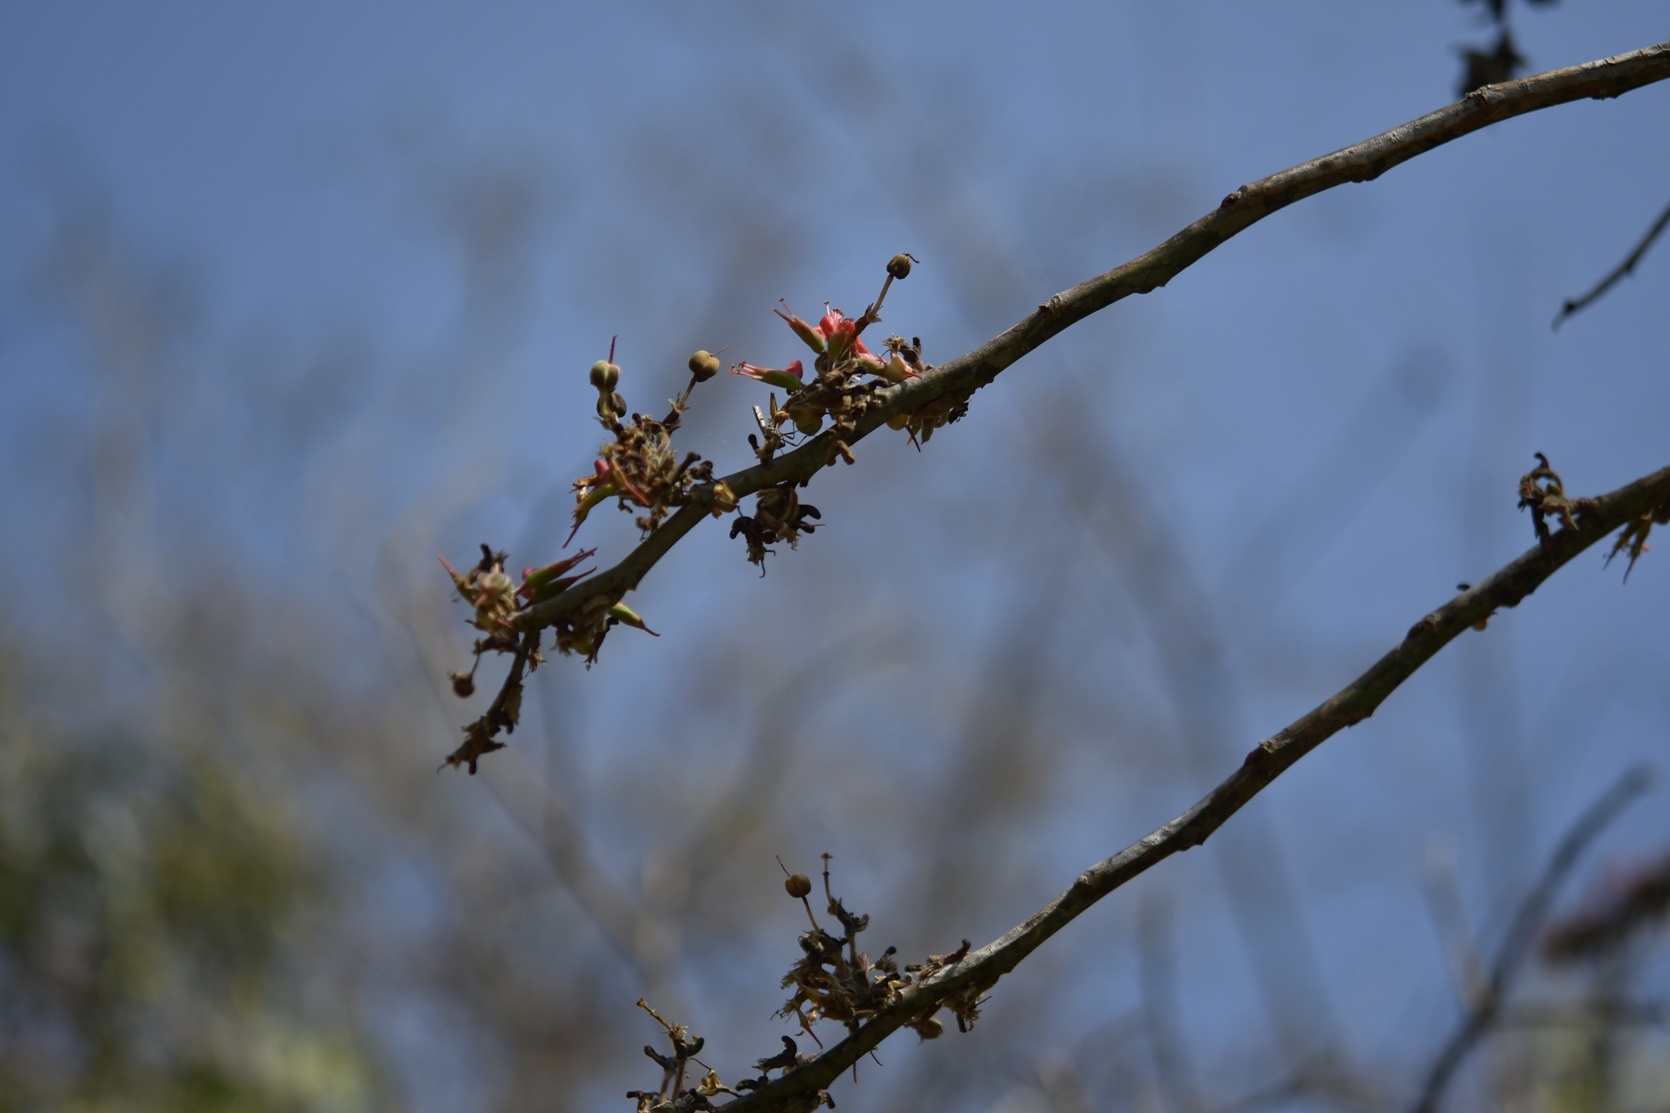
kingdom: Plantae
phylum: Tracheophyta
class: Magnoliopsida
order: Malpighiales
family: Euphorbiaceae
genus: Euphorbia
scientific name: Euphorbia calcarata
